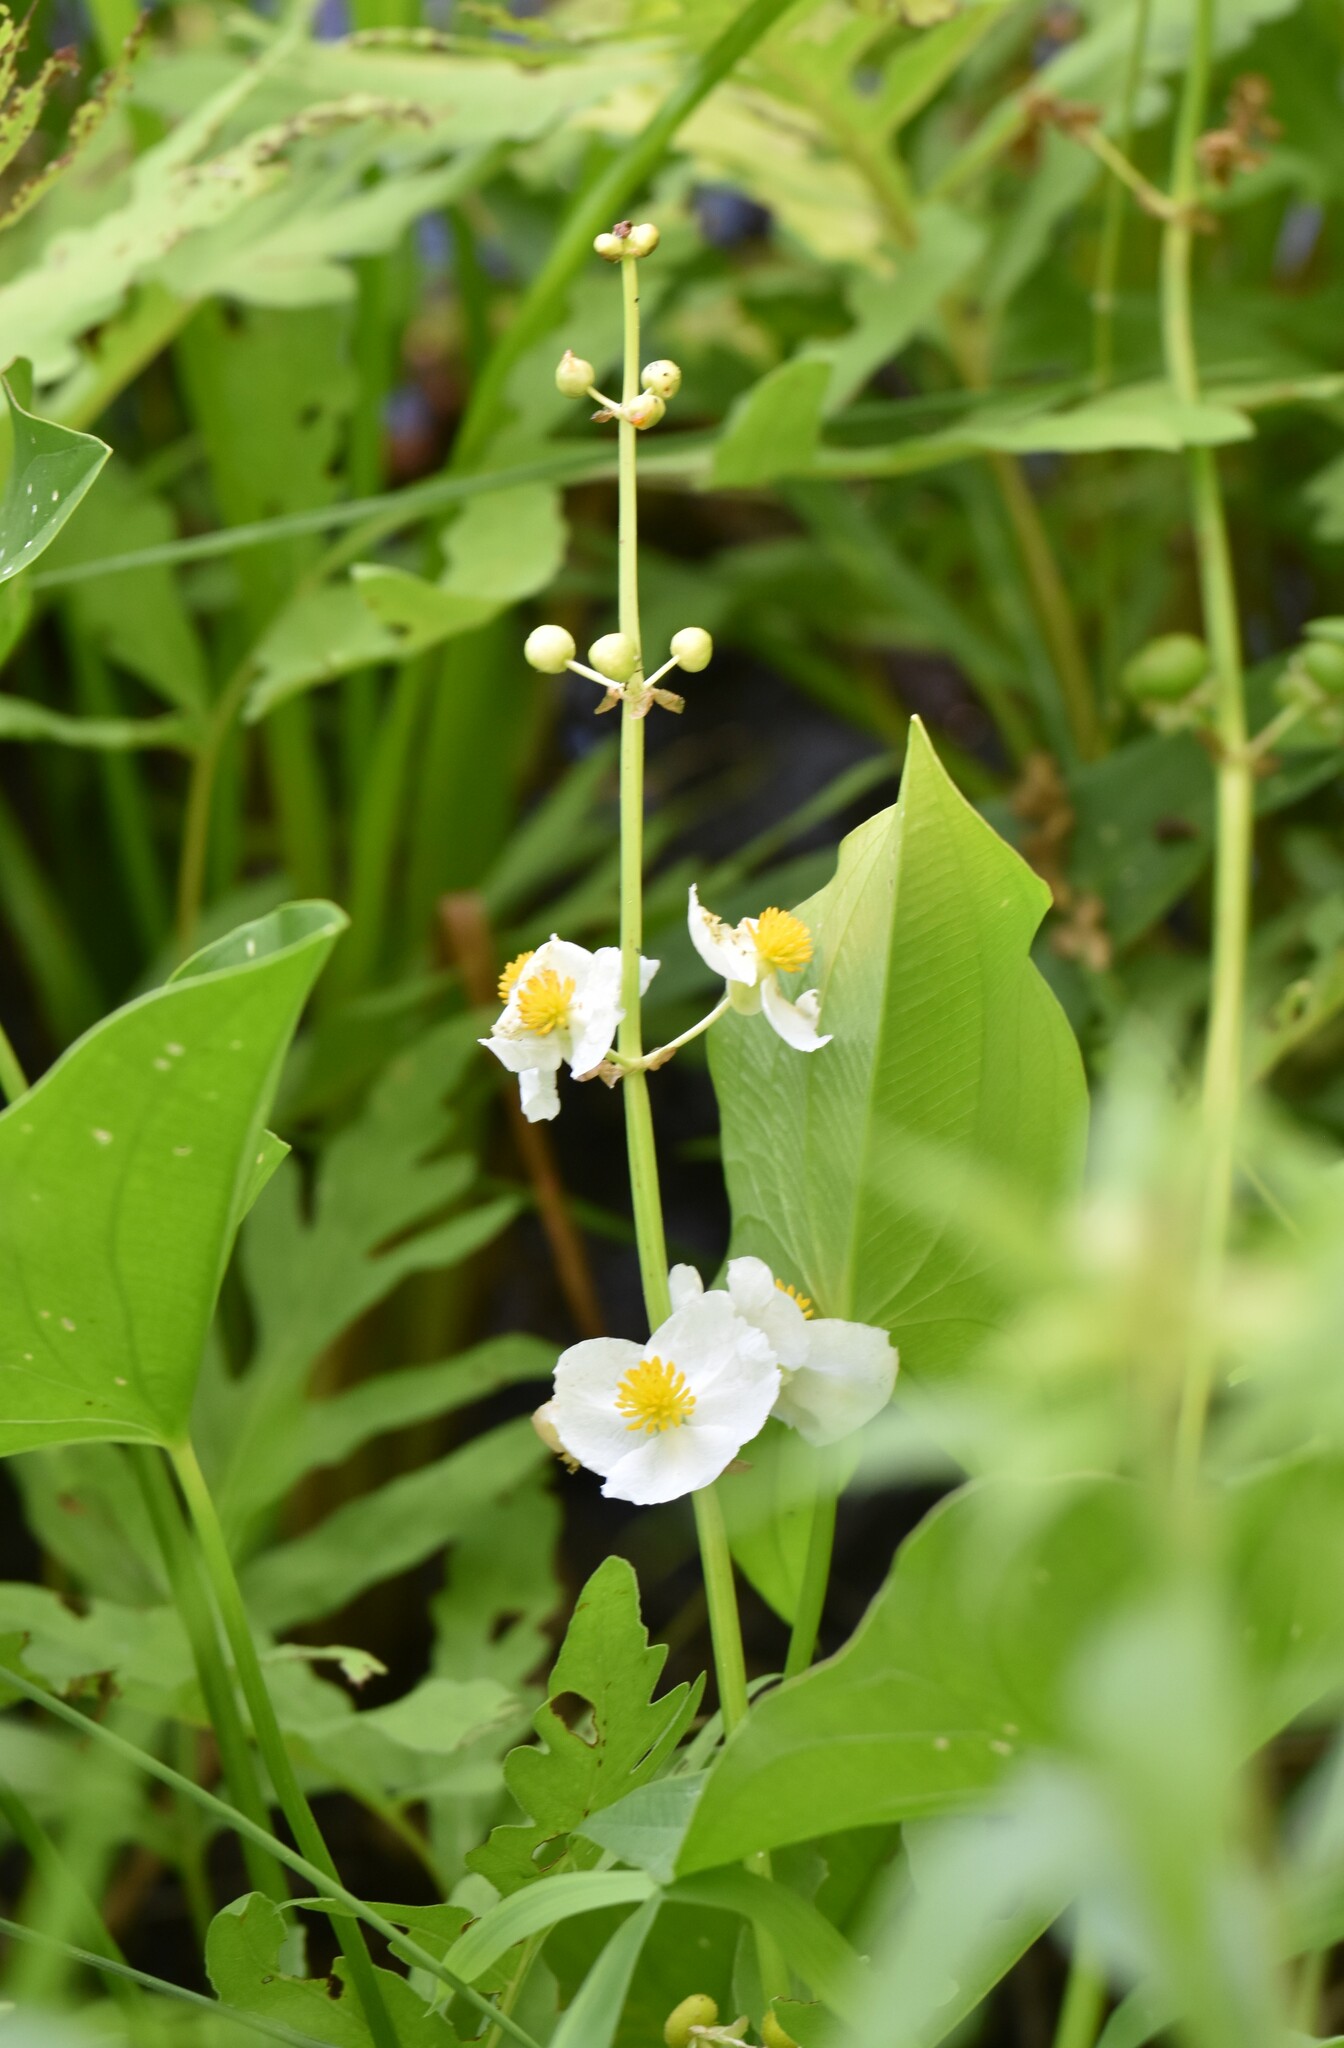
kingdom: Plantae
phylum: Tracheophyta
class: Liliopsida
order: Alismatales
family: Alismataceae
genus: Sagittaria
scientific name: Sagittaria latifolia
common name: Duck-potato
